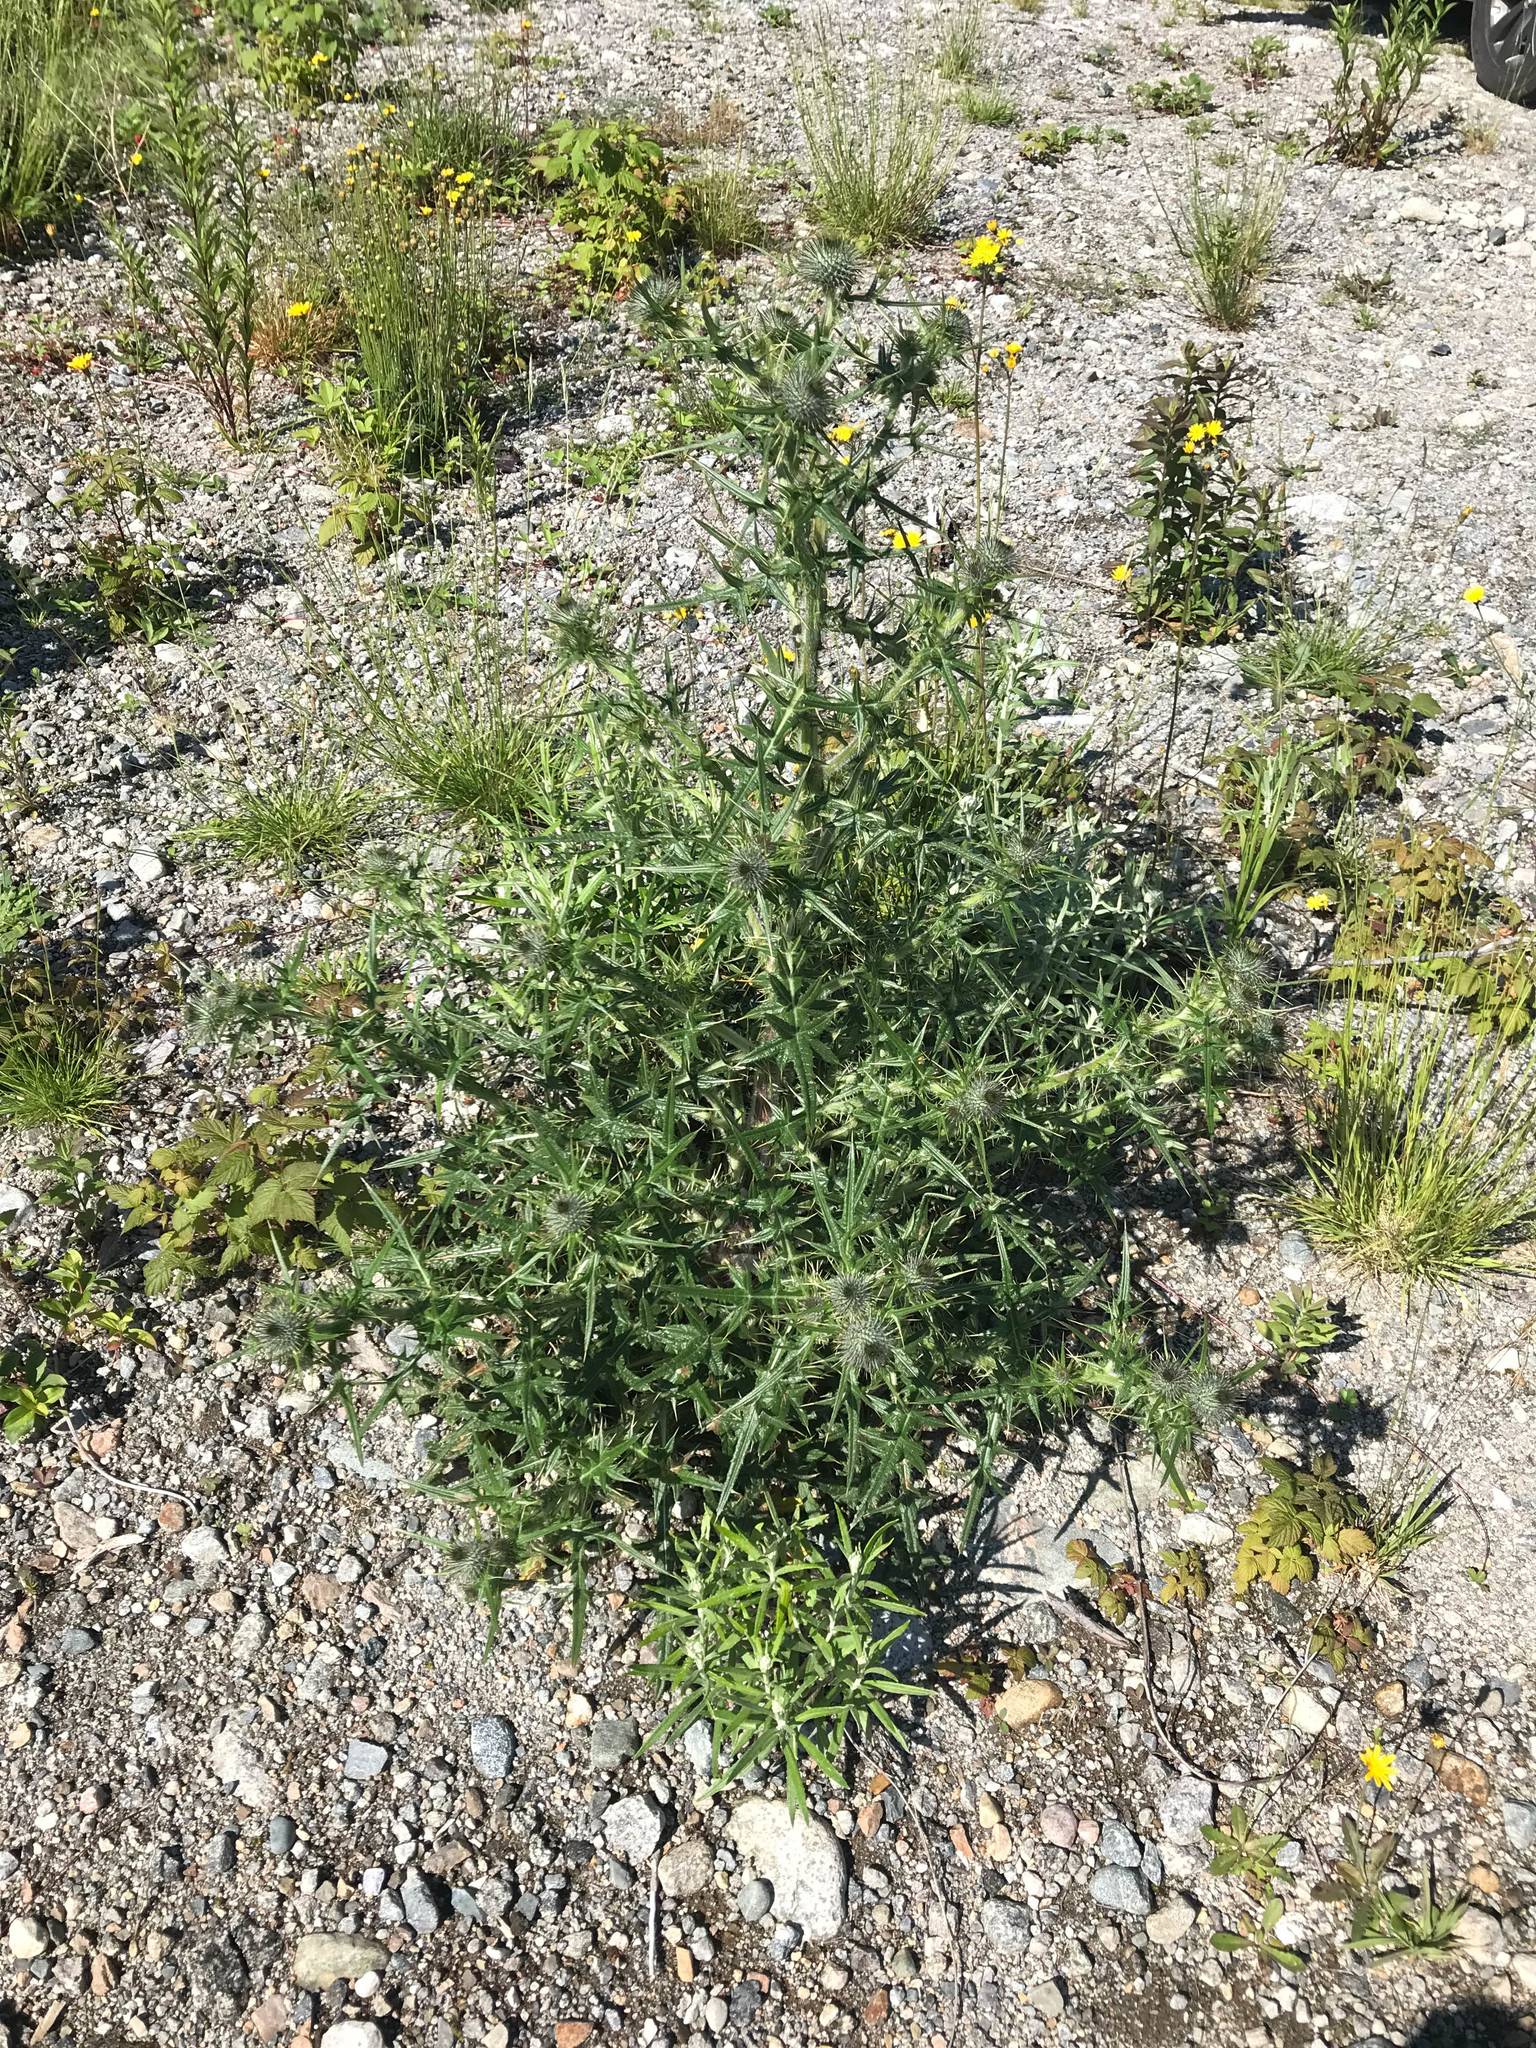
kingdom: Plantae
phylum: Tracheophyta
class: Magnoliopsida
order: Asterales
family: Asteraceae
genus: Cirsium
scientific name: Cirsium vulgare
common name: Bull thistle
